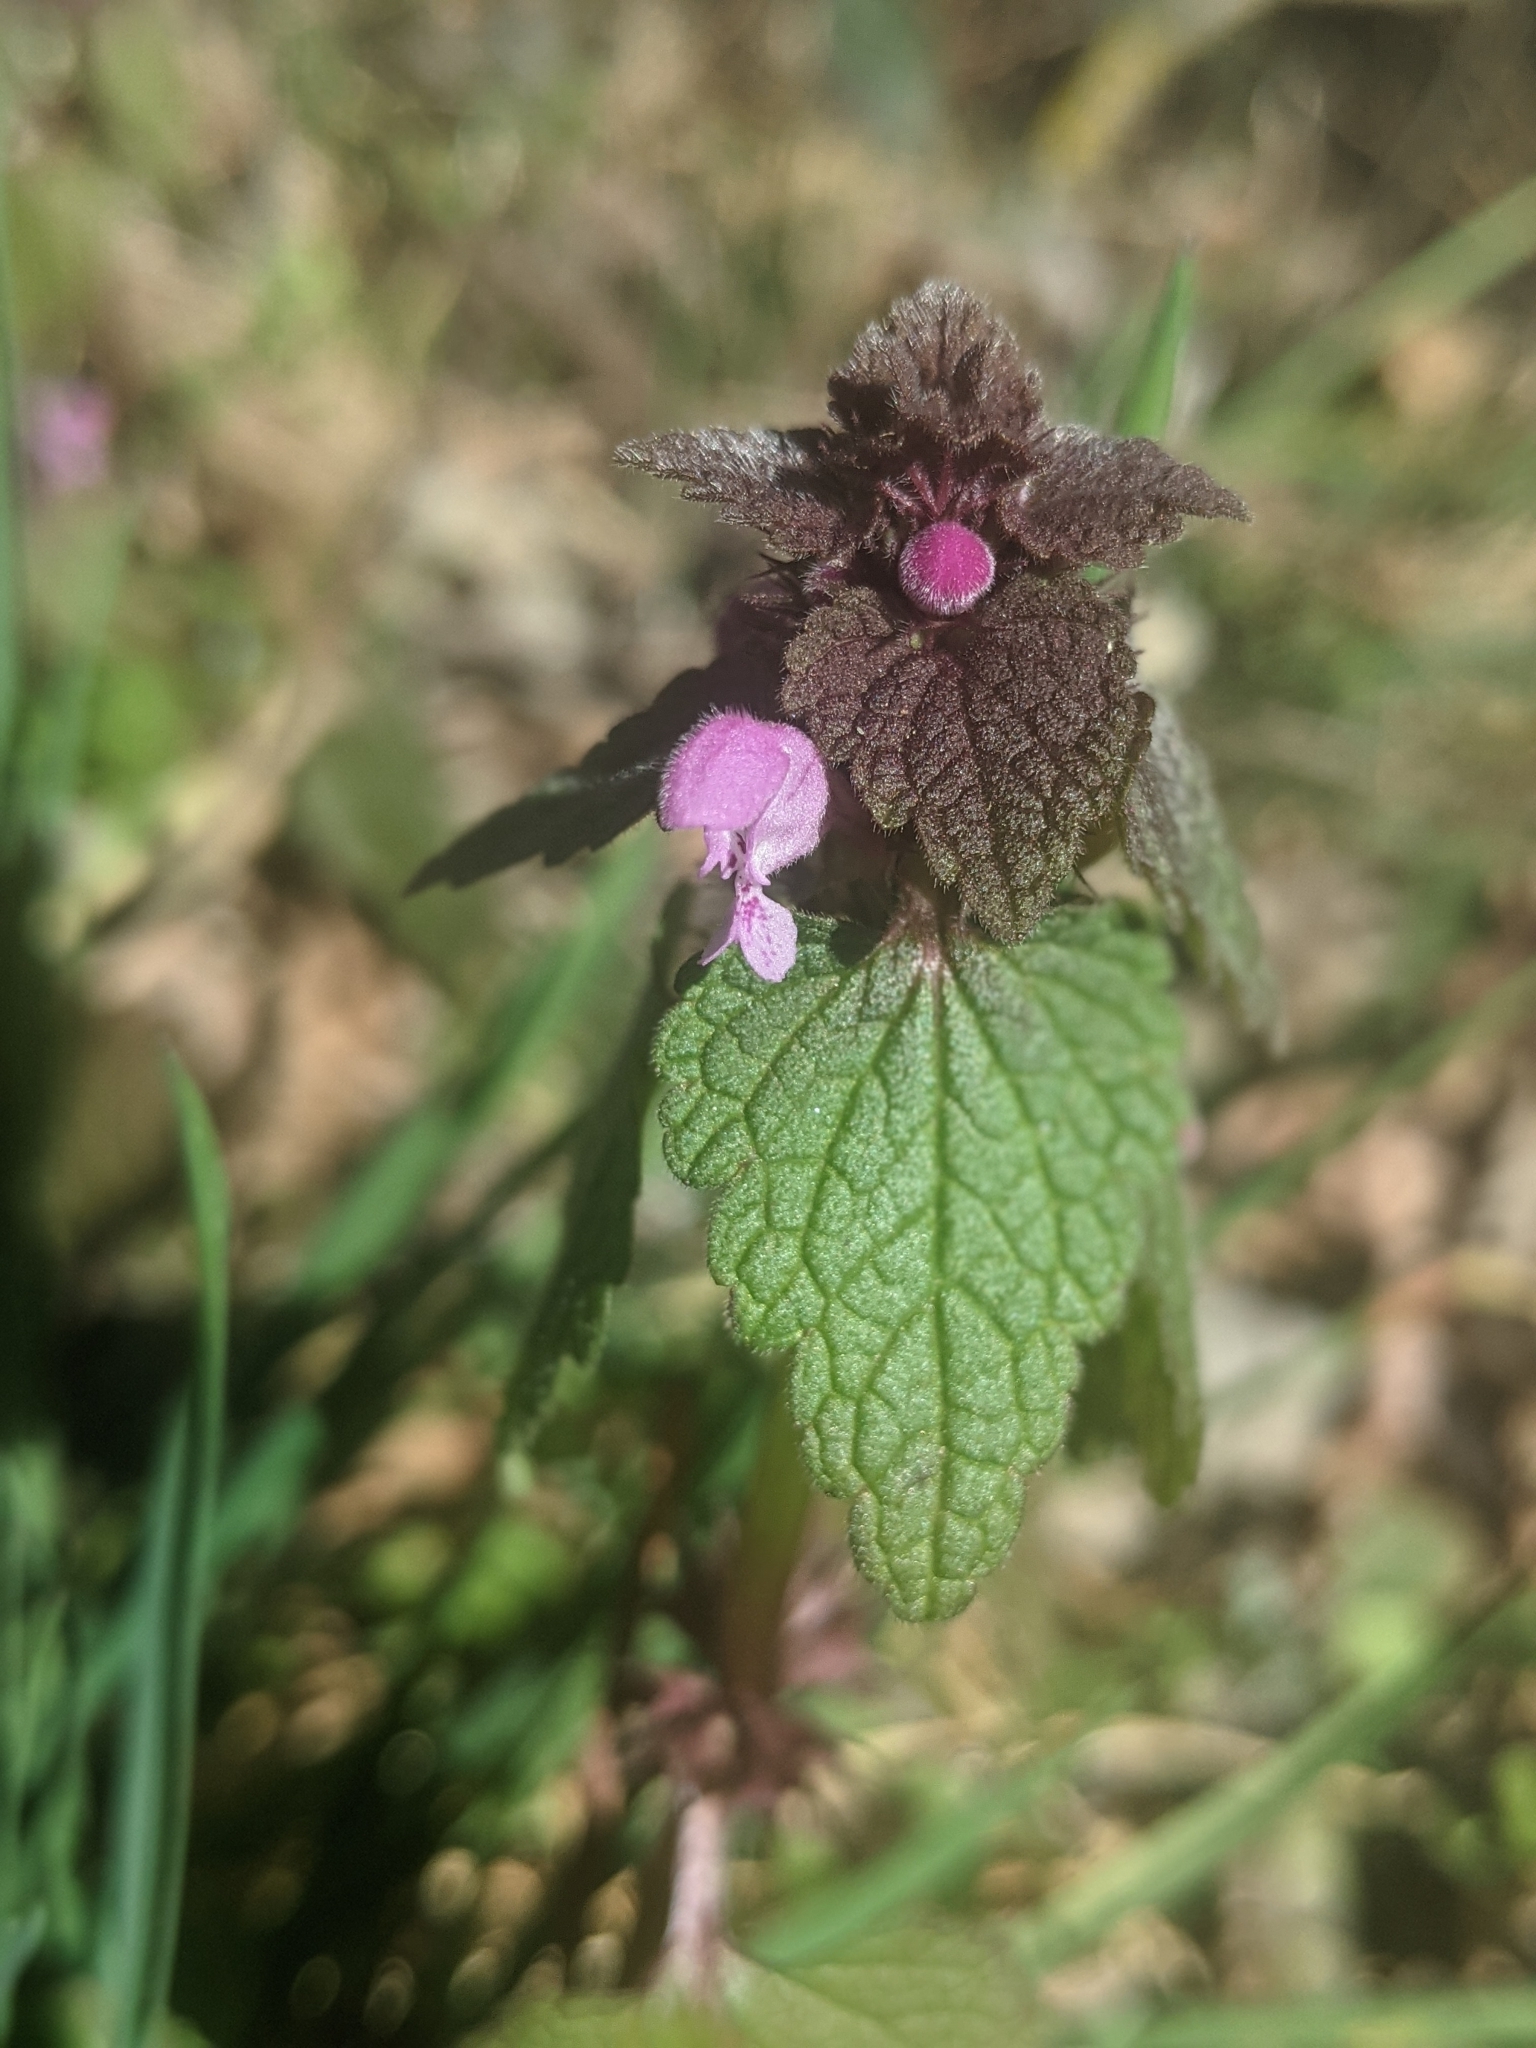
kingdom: Plantae
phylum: Tracheophyta
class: Magnoliopsida
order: Lamiales
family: Lamiaceae
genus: Lamium
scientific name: Lamium purpureum
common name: Red dead-nettle
